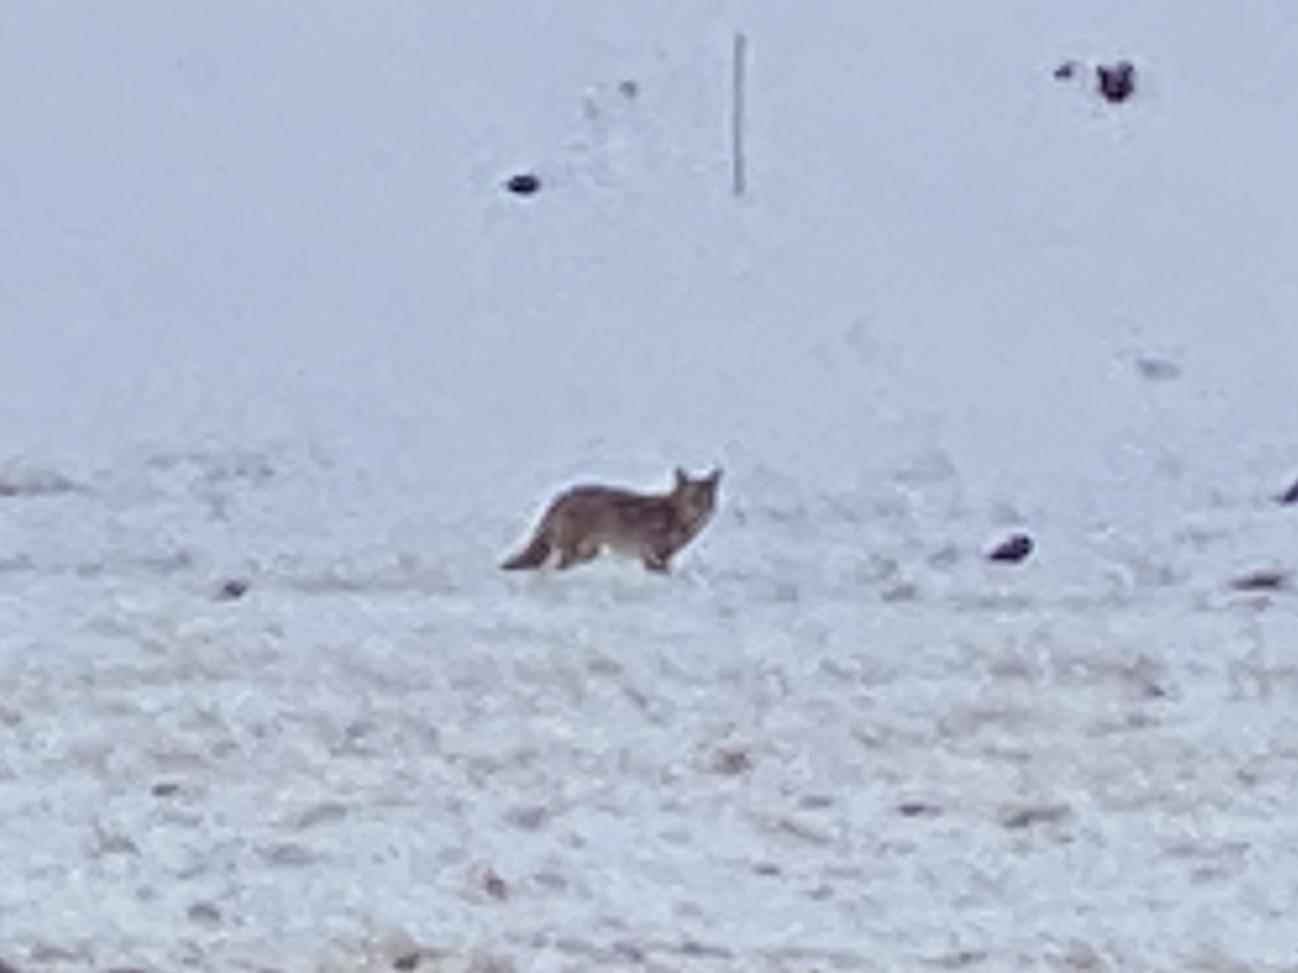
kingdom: Animalia
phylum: Chordata
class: Mammalia
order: Carnivora
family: Canidae
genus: Canis
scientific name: Canis latrans
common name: Coyote
